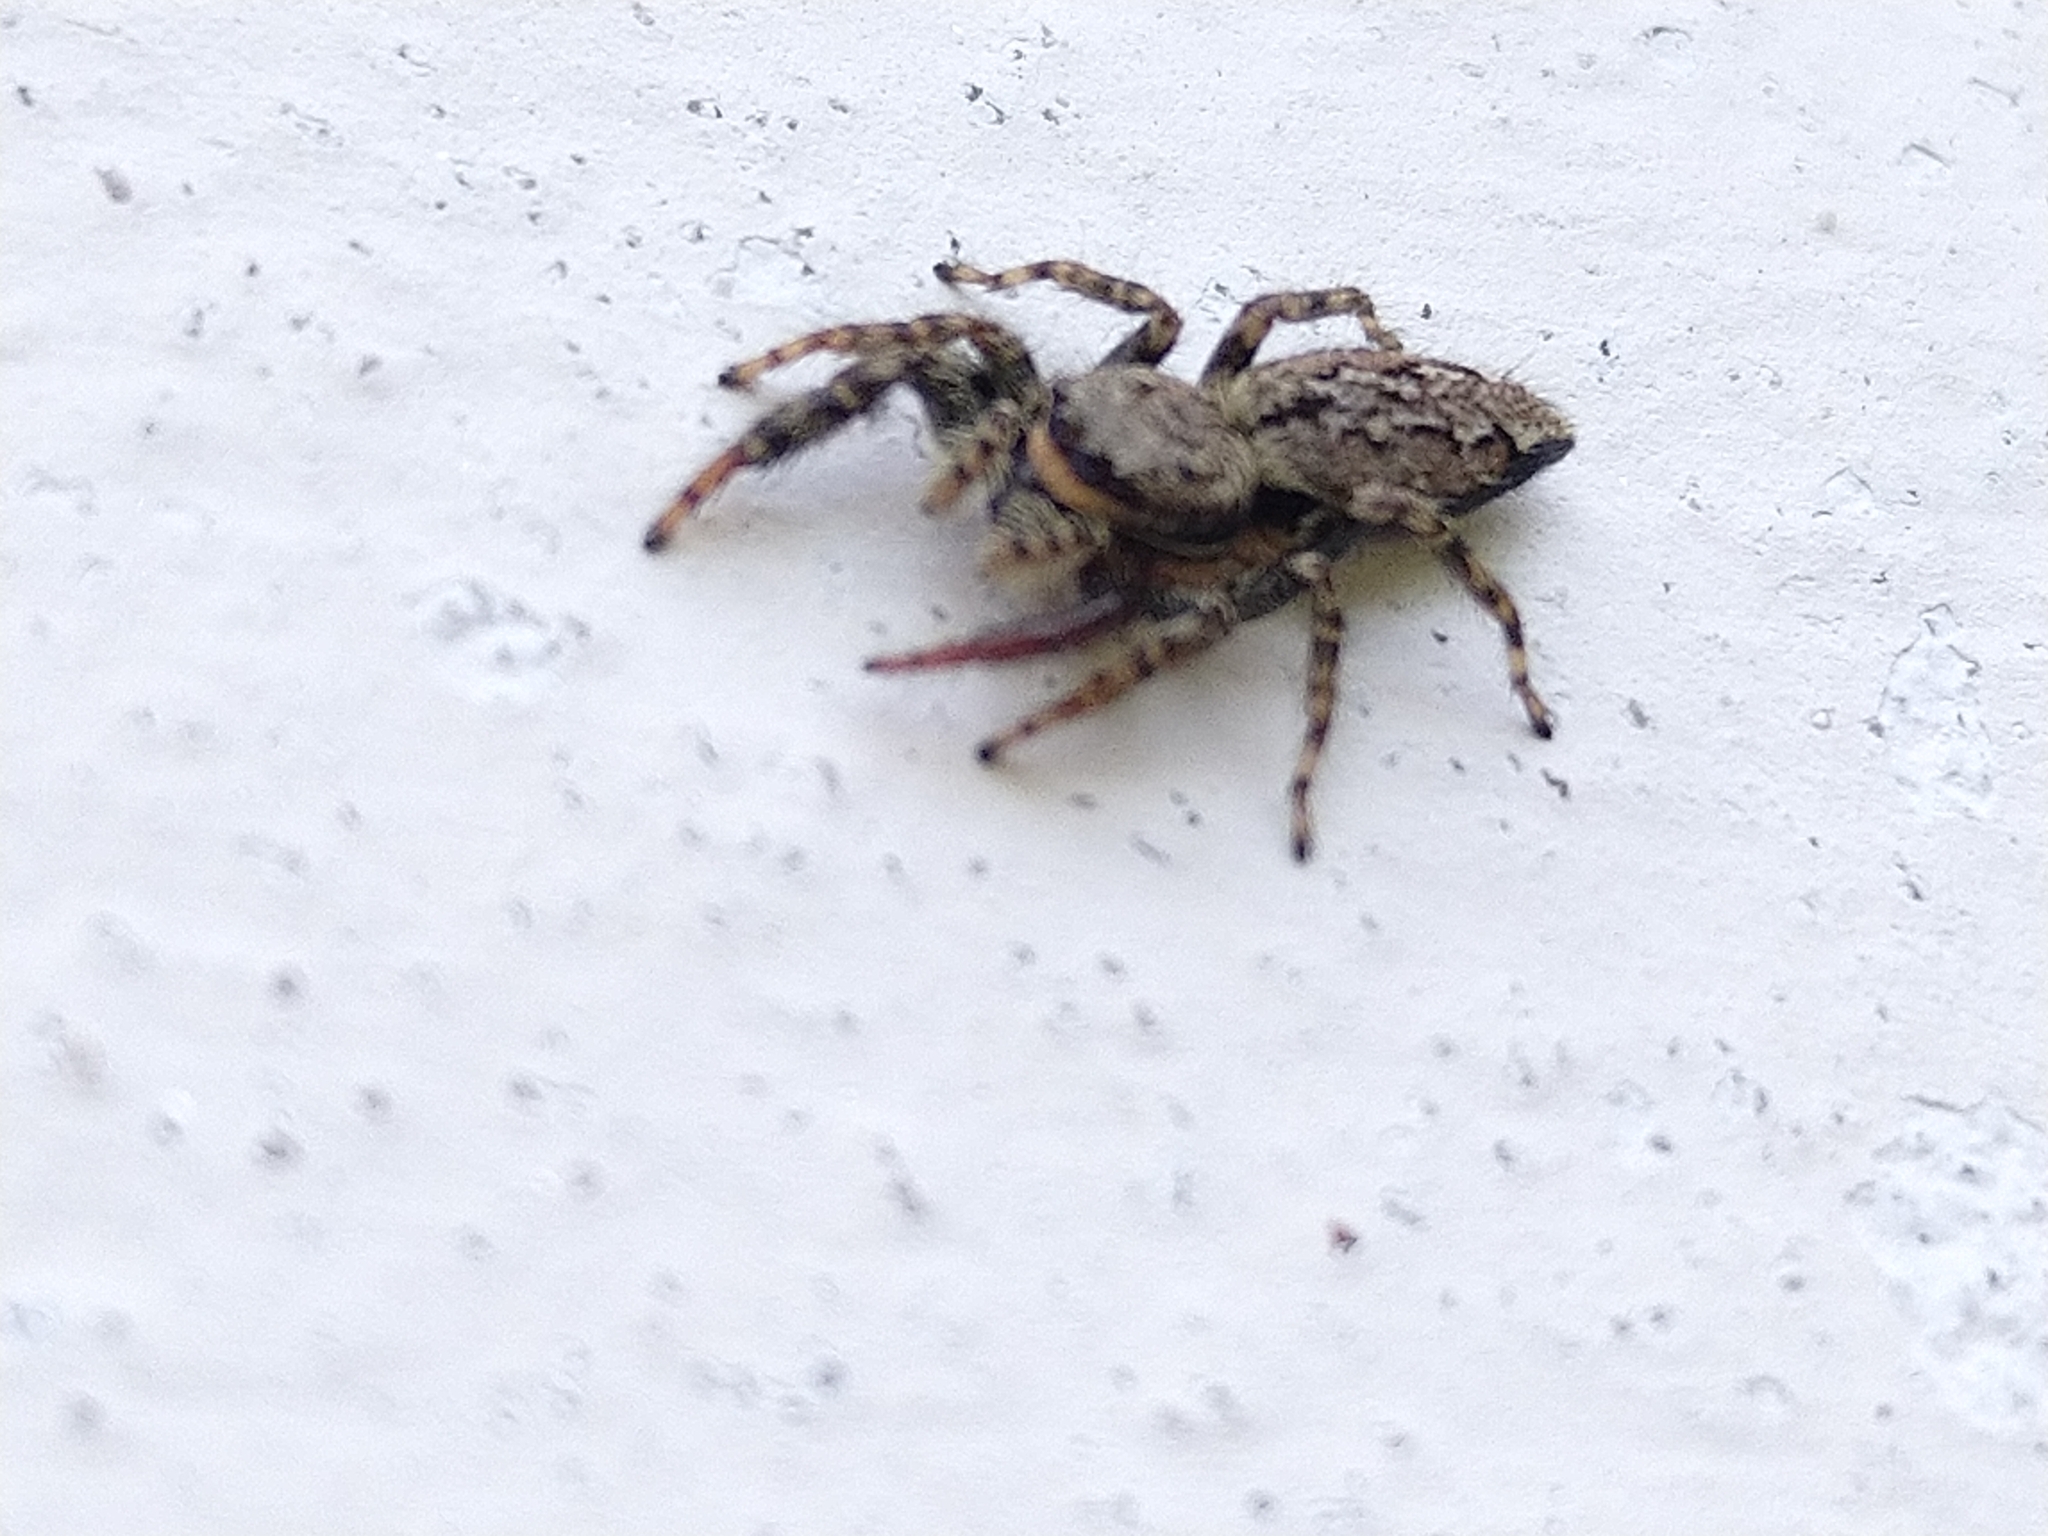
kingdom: Animalia
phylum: Arthropoda
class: Arachnida
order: Araneae
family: Salticidae
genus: Marpissa
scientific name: Marpissa muscosa
